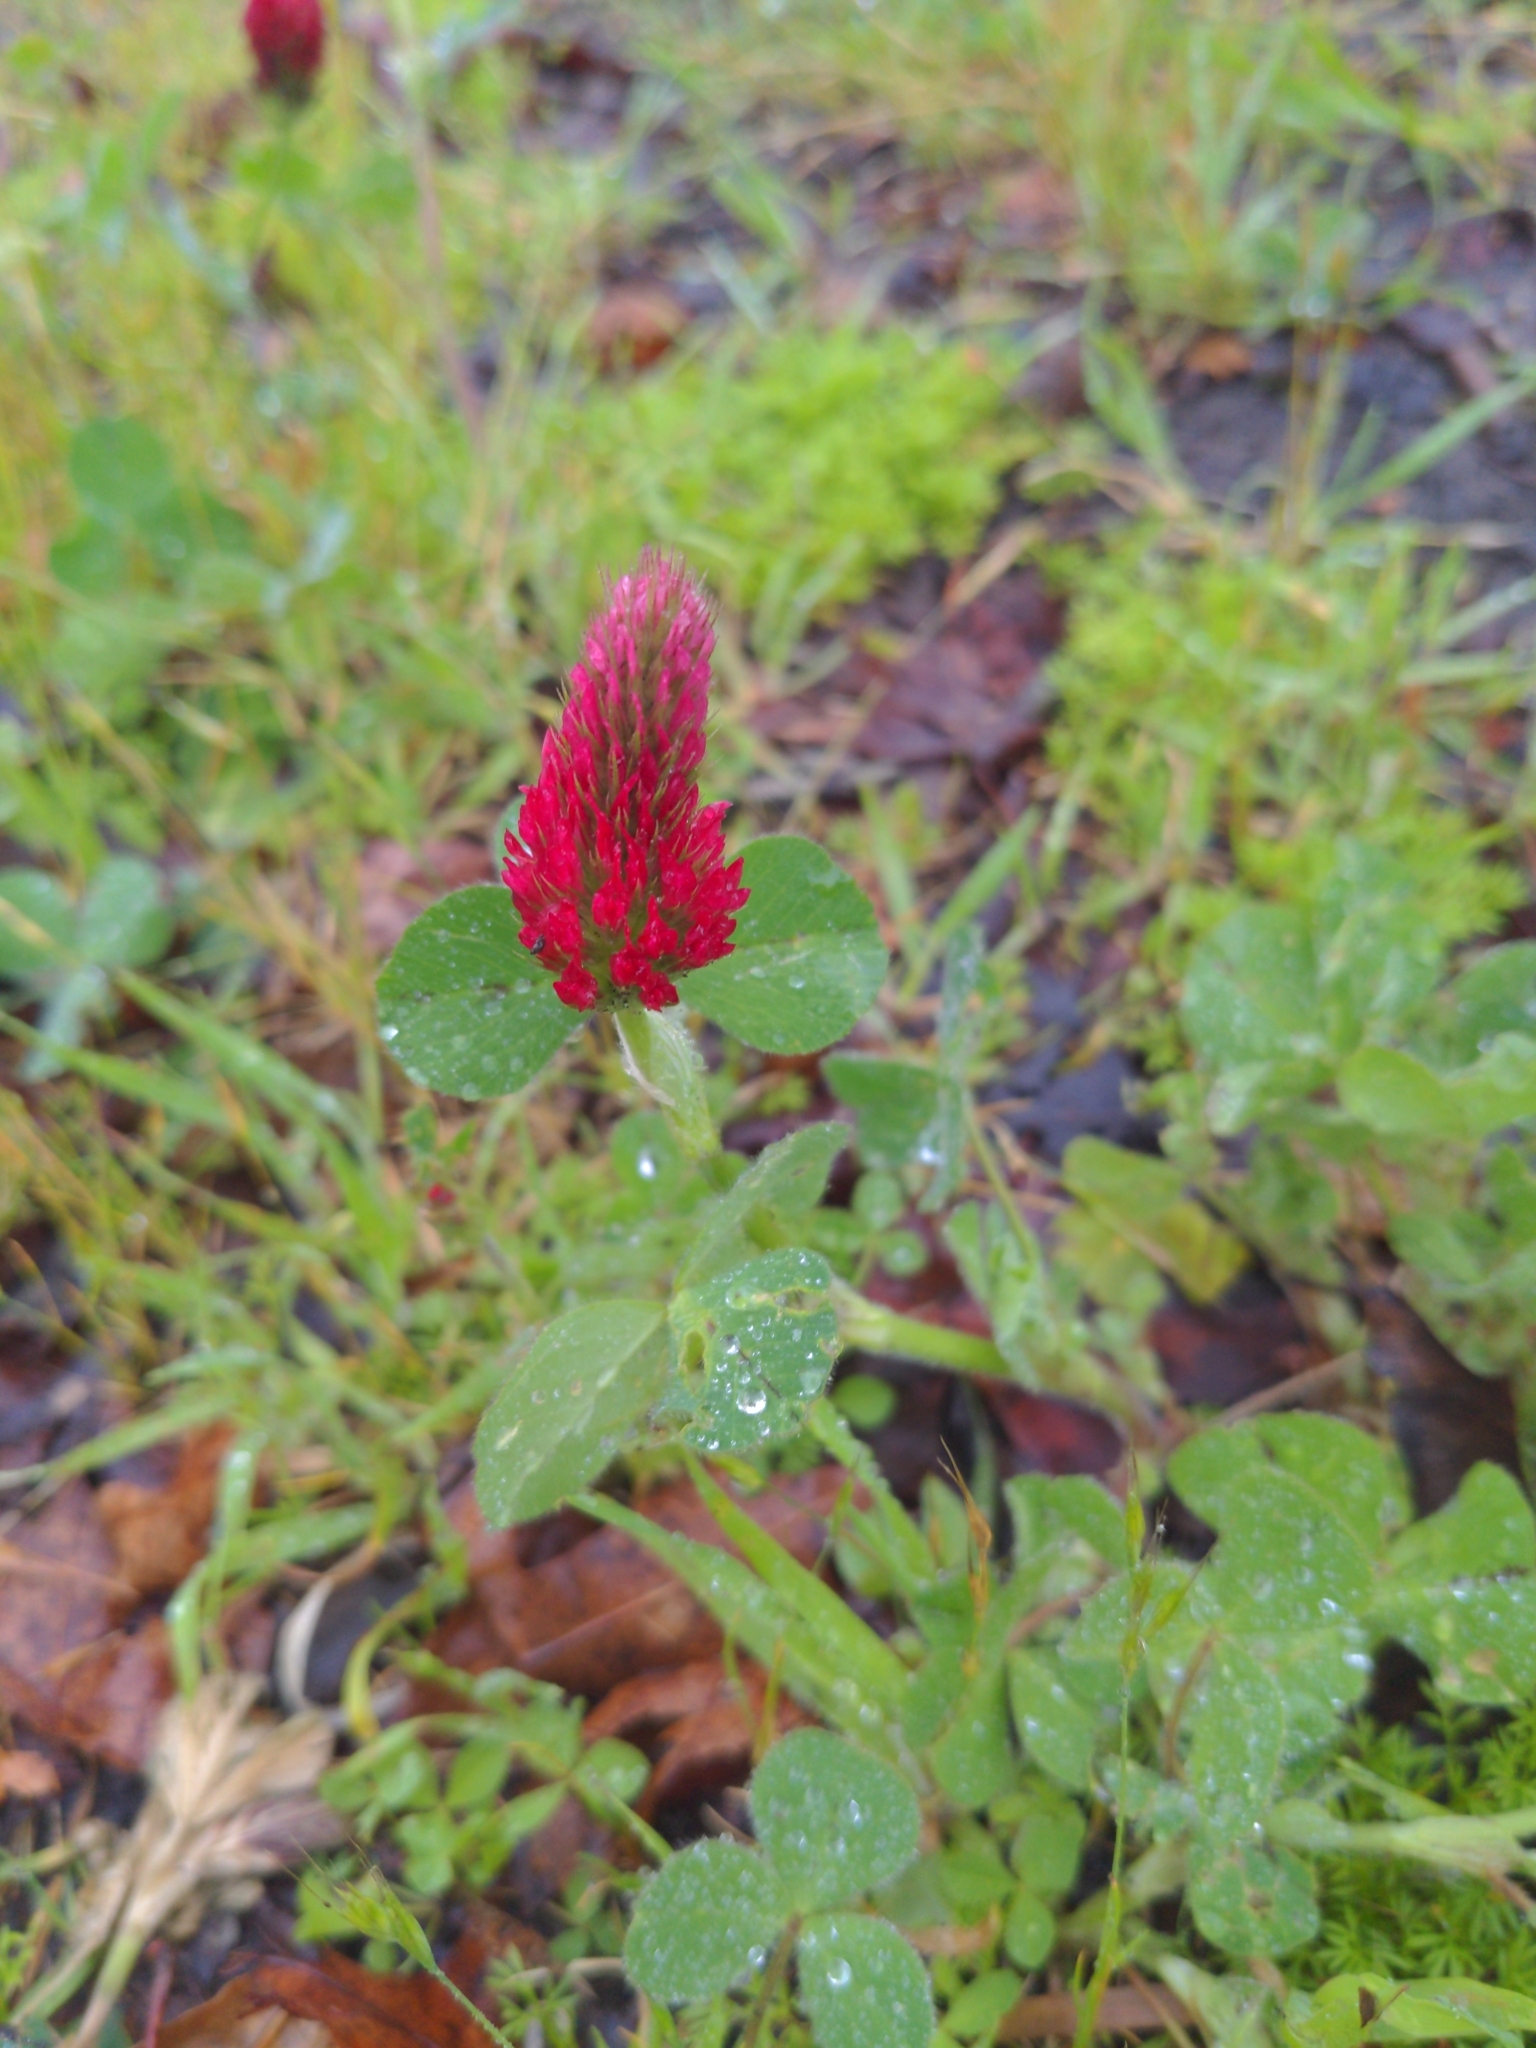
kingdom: Plantae
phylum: Tracheophyta
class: Magnoliopsida
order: Fabales
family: Fabaceae
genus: Trifolium
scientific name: Trifolium incarnatum
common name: Crimson clover
